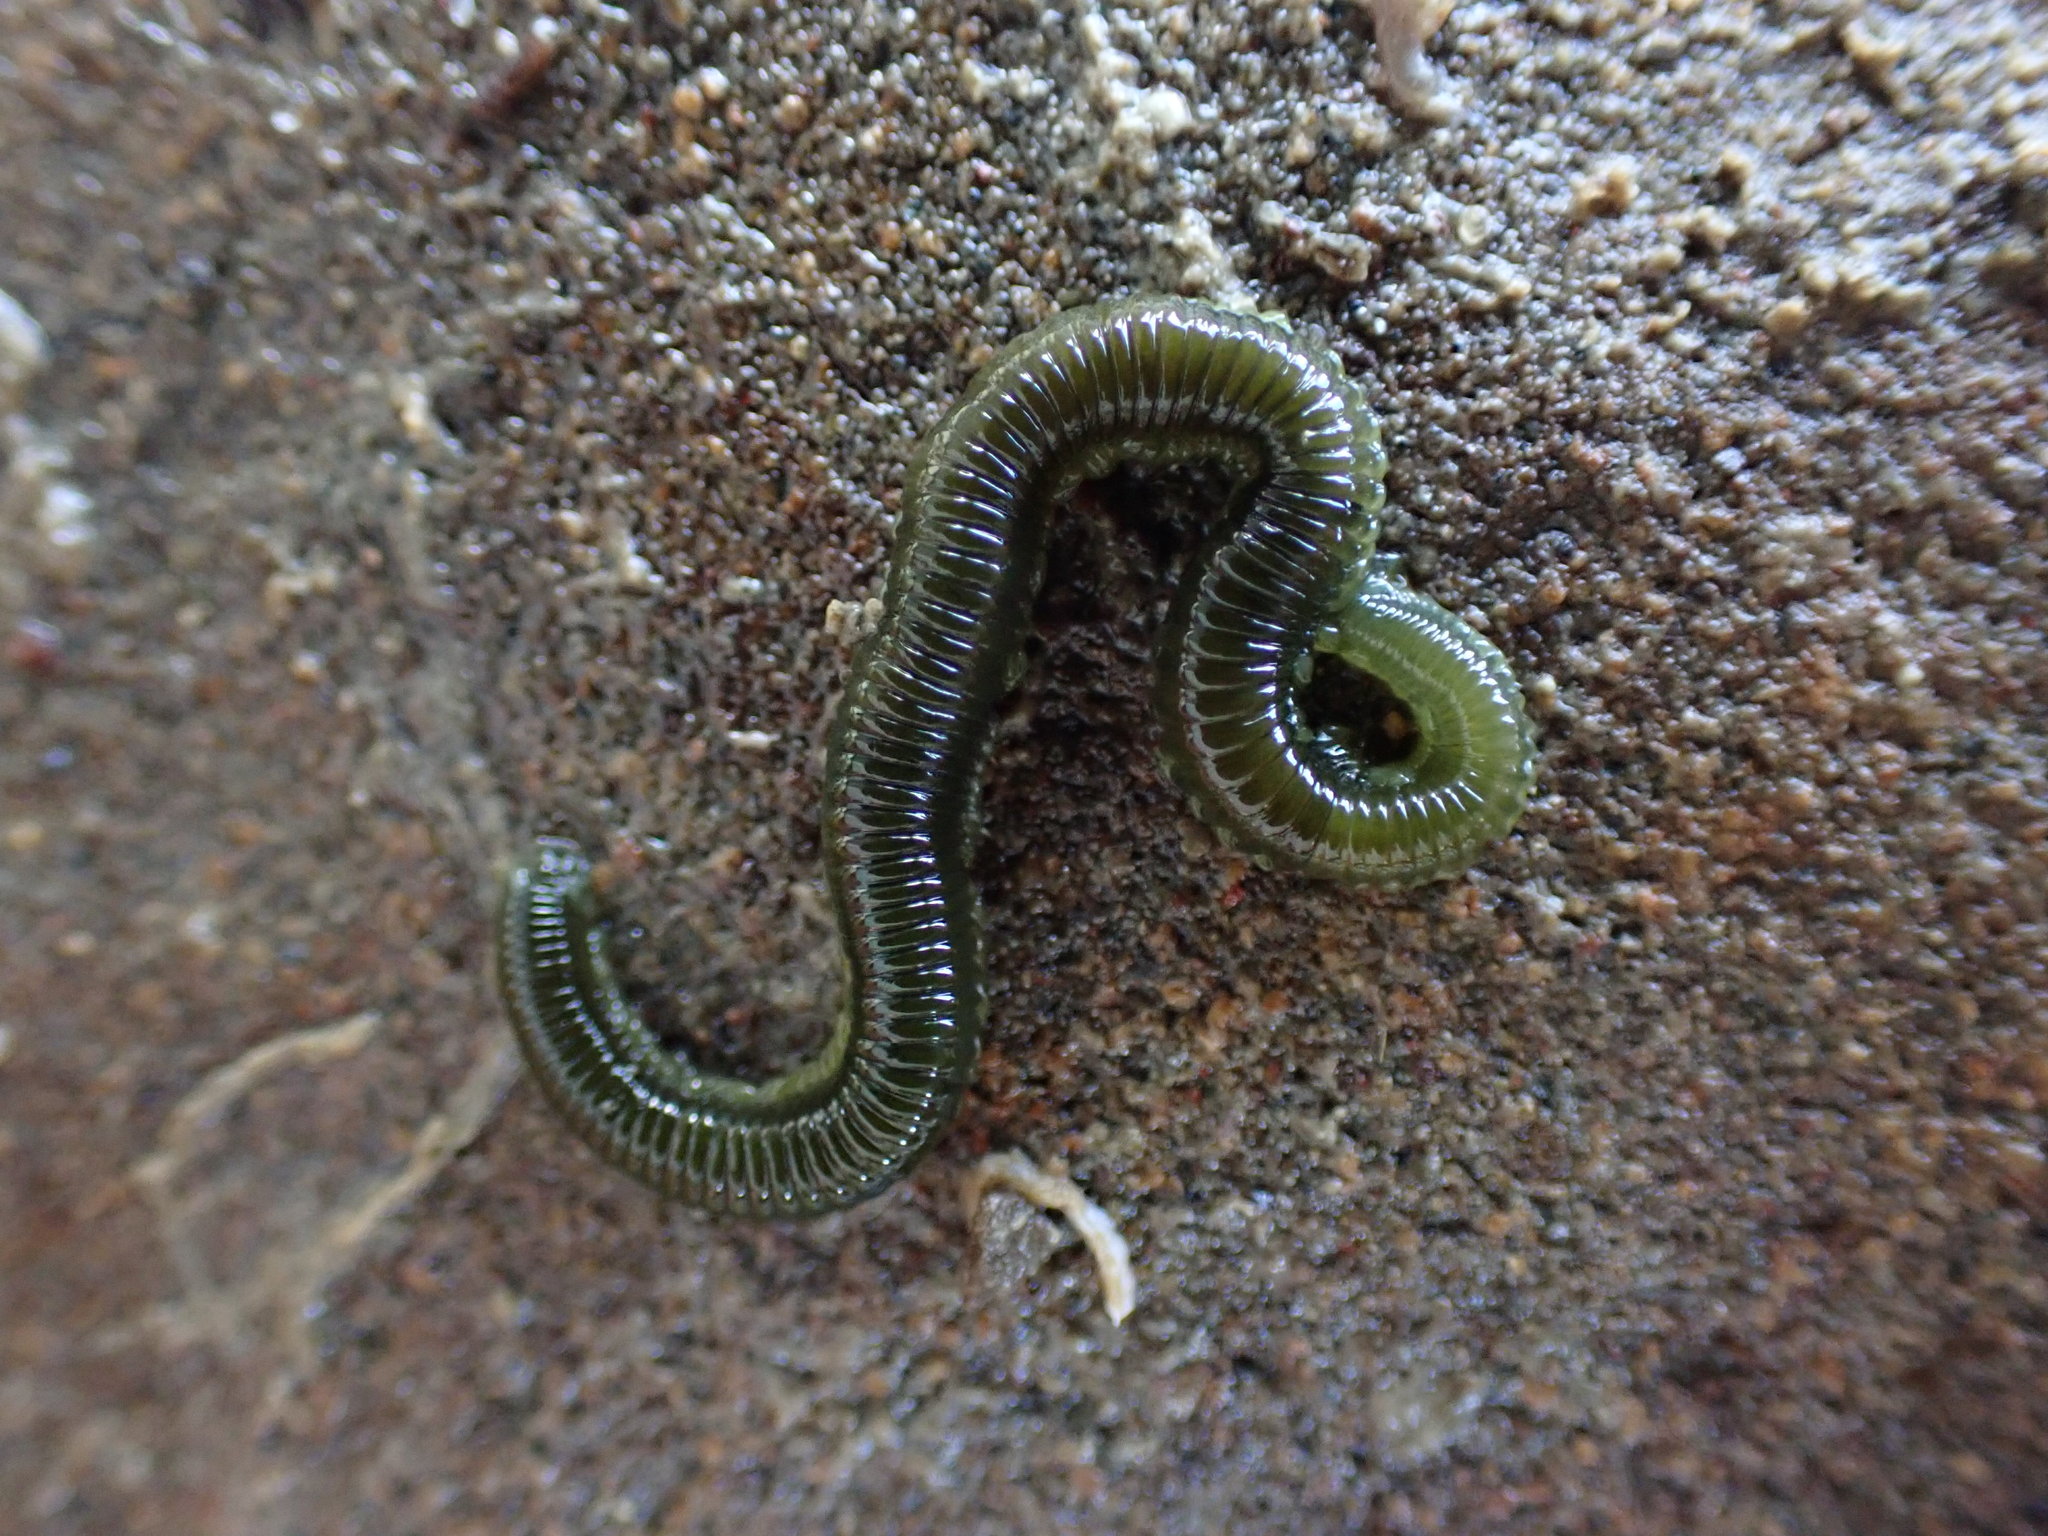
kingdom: Animalia
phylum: Annelida
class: Polychaeta
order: Phyllodocida
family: Phyllodocidae
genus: Eulalia
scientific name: Eulalia microphylla
